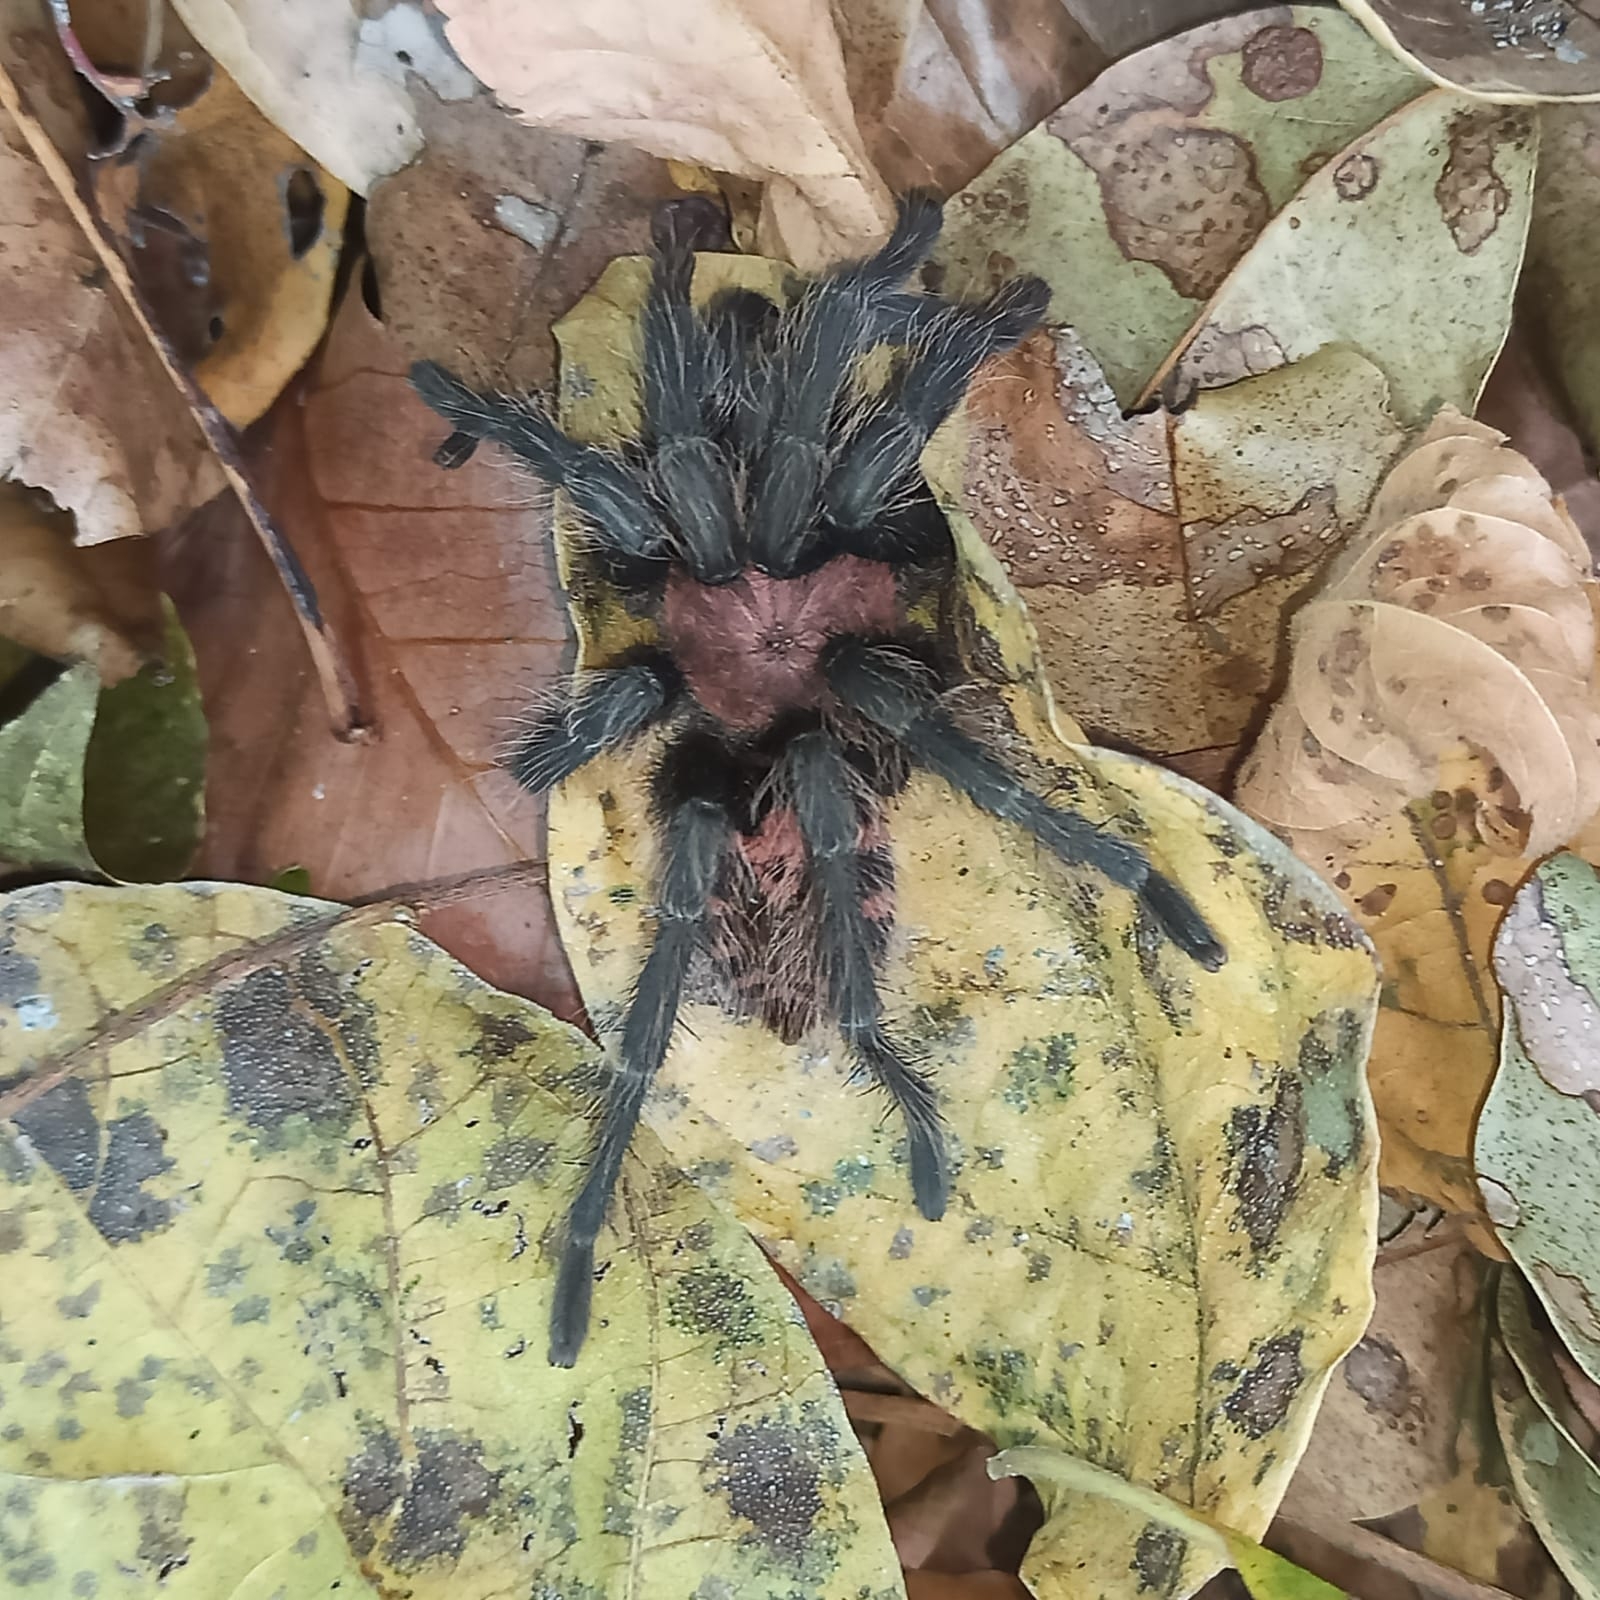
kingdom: Animalia
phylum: Arthropoda
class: Arachnida
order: Araneae
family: Theraphosidae
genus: Davus
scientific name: Davus pentaloris
